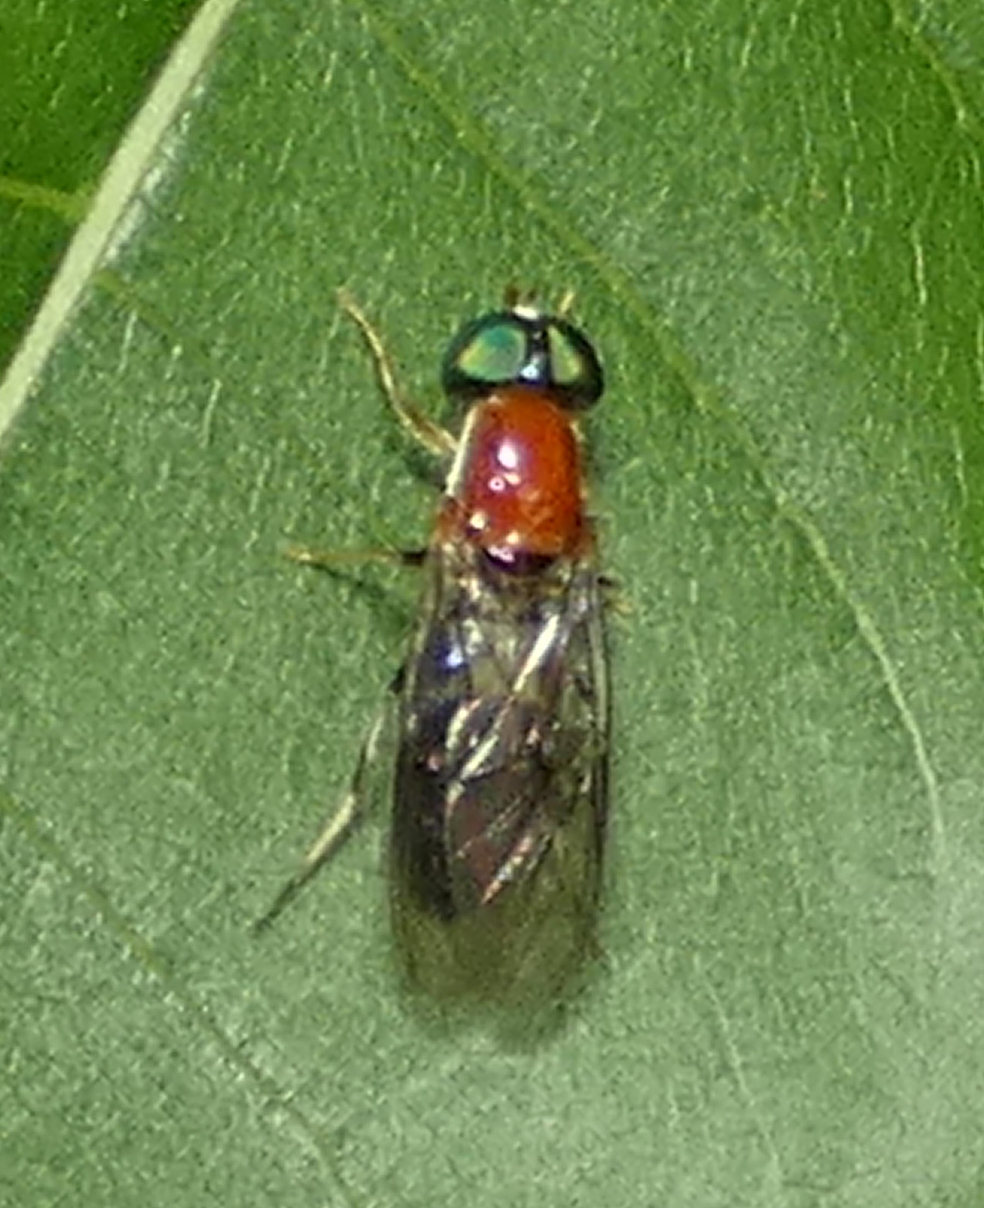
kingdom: Animalia
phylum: Arthropoda
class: Insecta
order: Diptera
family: Stratiomyidae
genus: Sargus
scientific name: Sargus thoracicus
